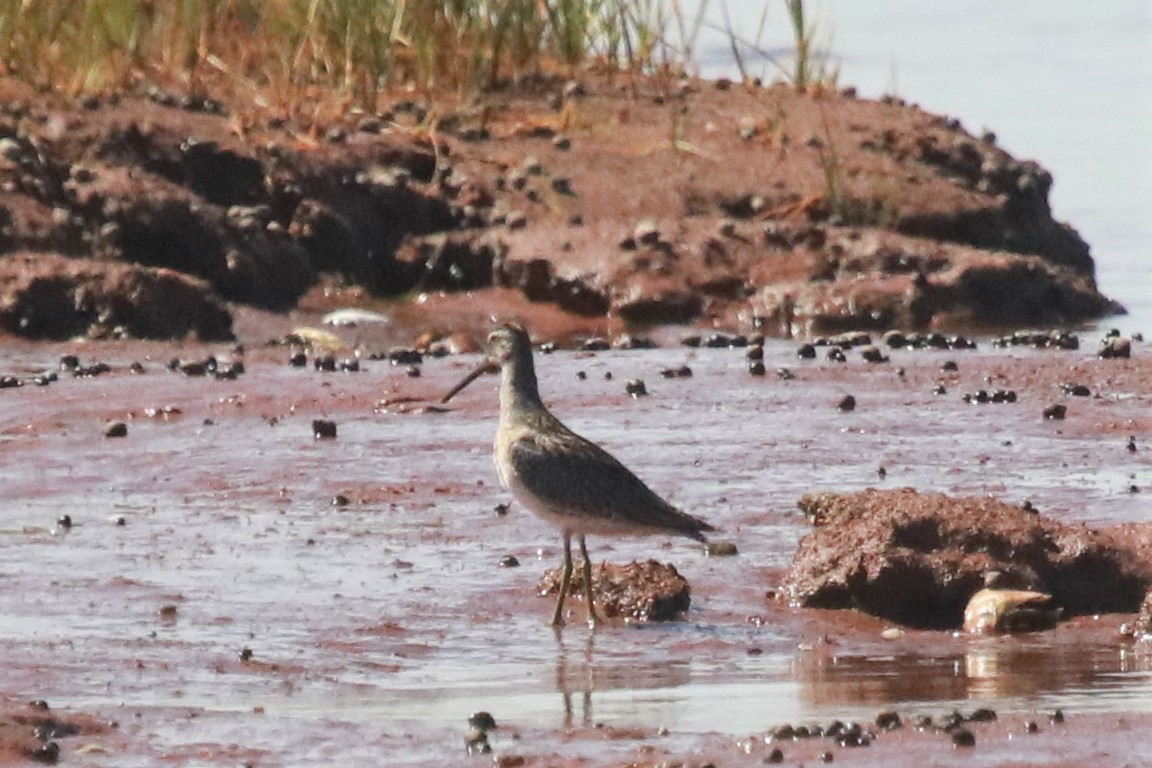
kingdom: Animalia
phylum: Chordata
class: Aves
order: Charadriiformes
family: Scolopacidae
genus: Limnodromus
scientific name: Limnodromus griseus
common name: Short-billed dowitcher
